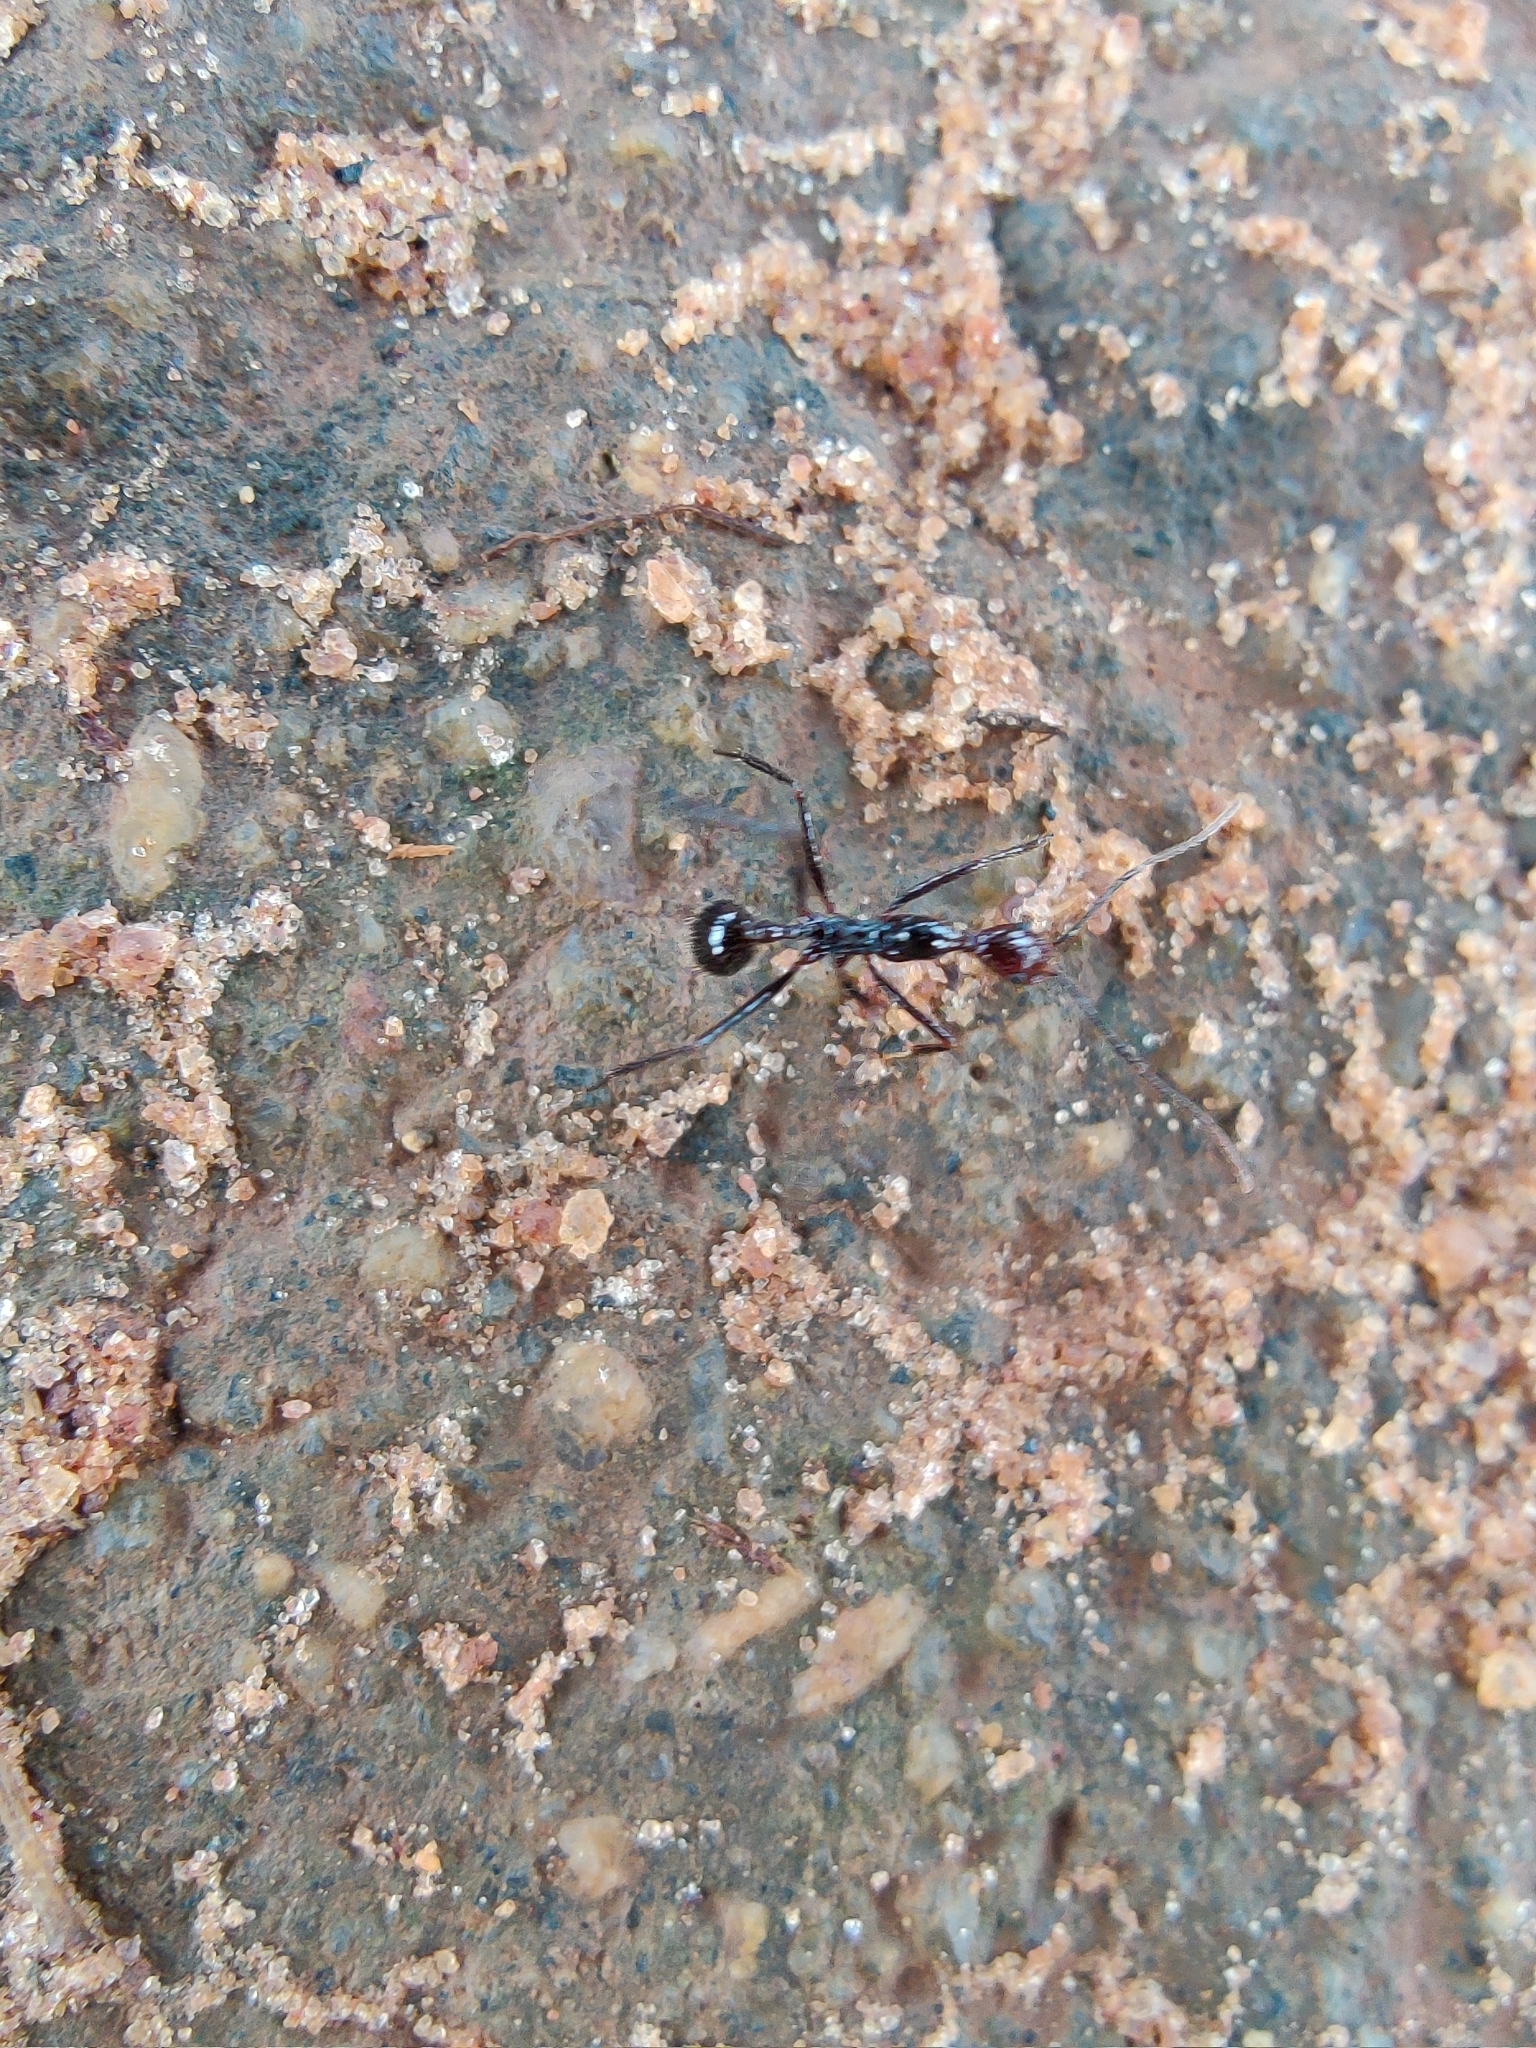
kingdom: Animalia
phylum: Arthropoda
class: Insecta
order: Hymenoptera
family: Formicidae
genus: Aphaenogaster
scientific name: Aphaenogaster beccarii
